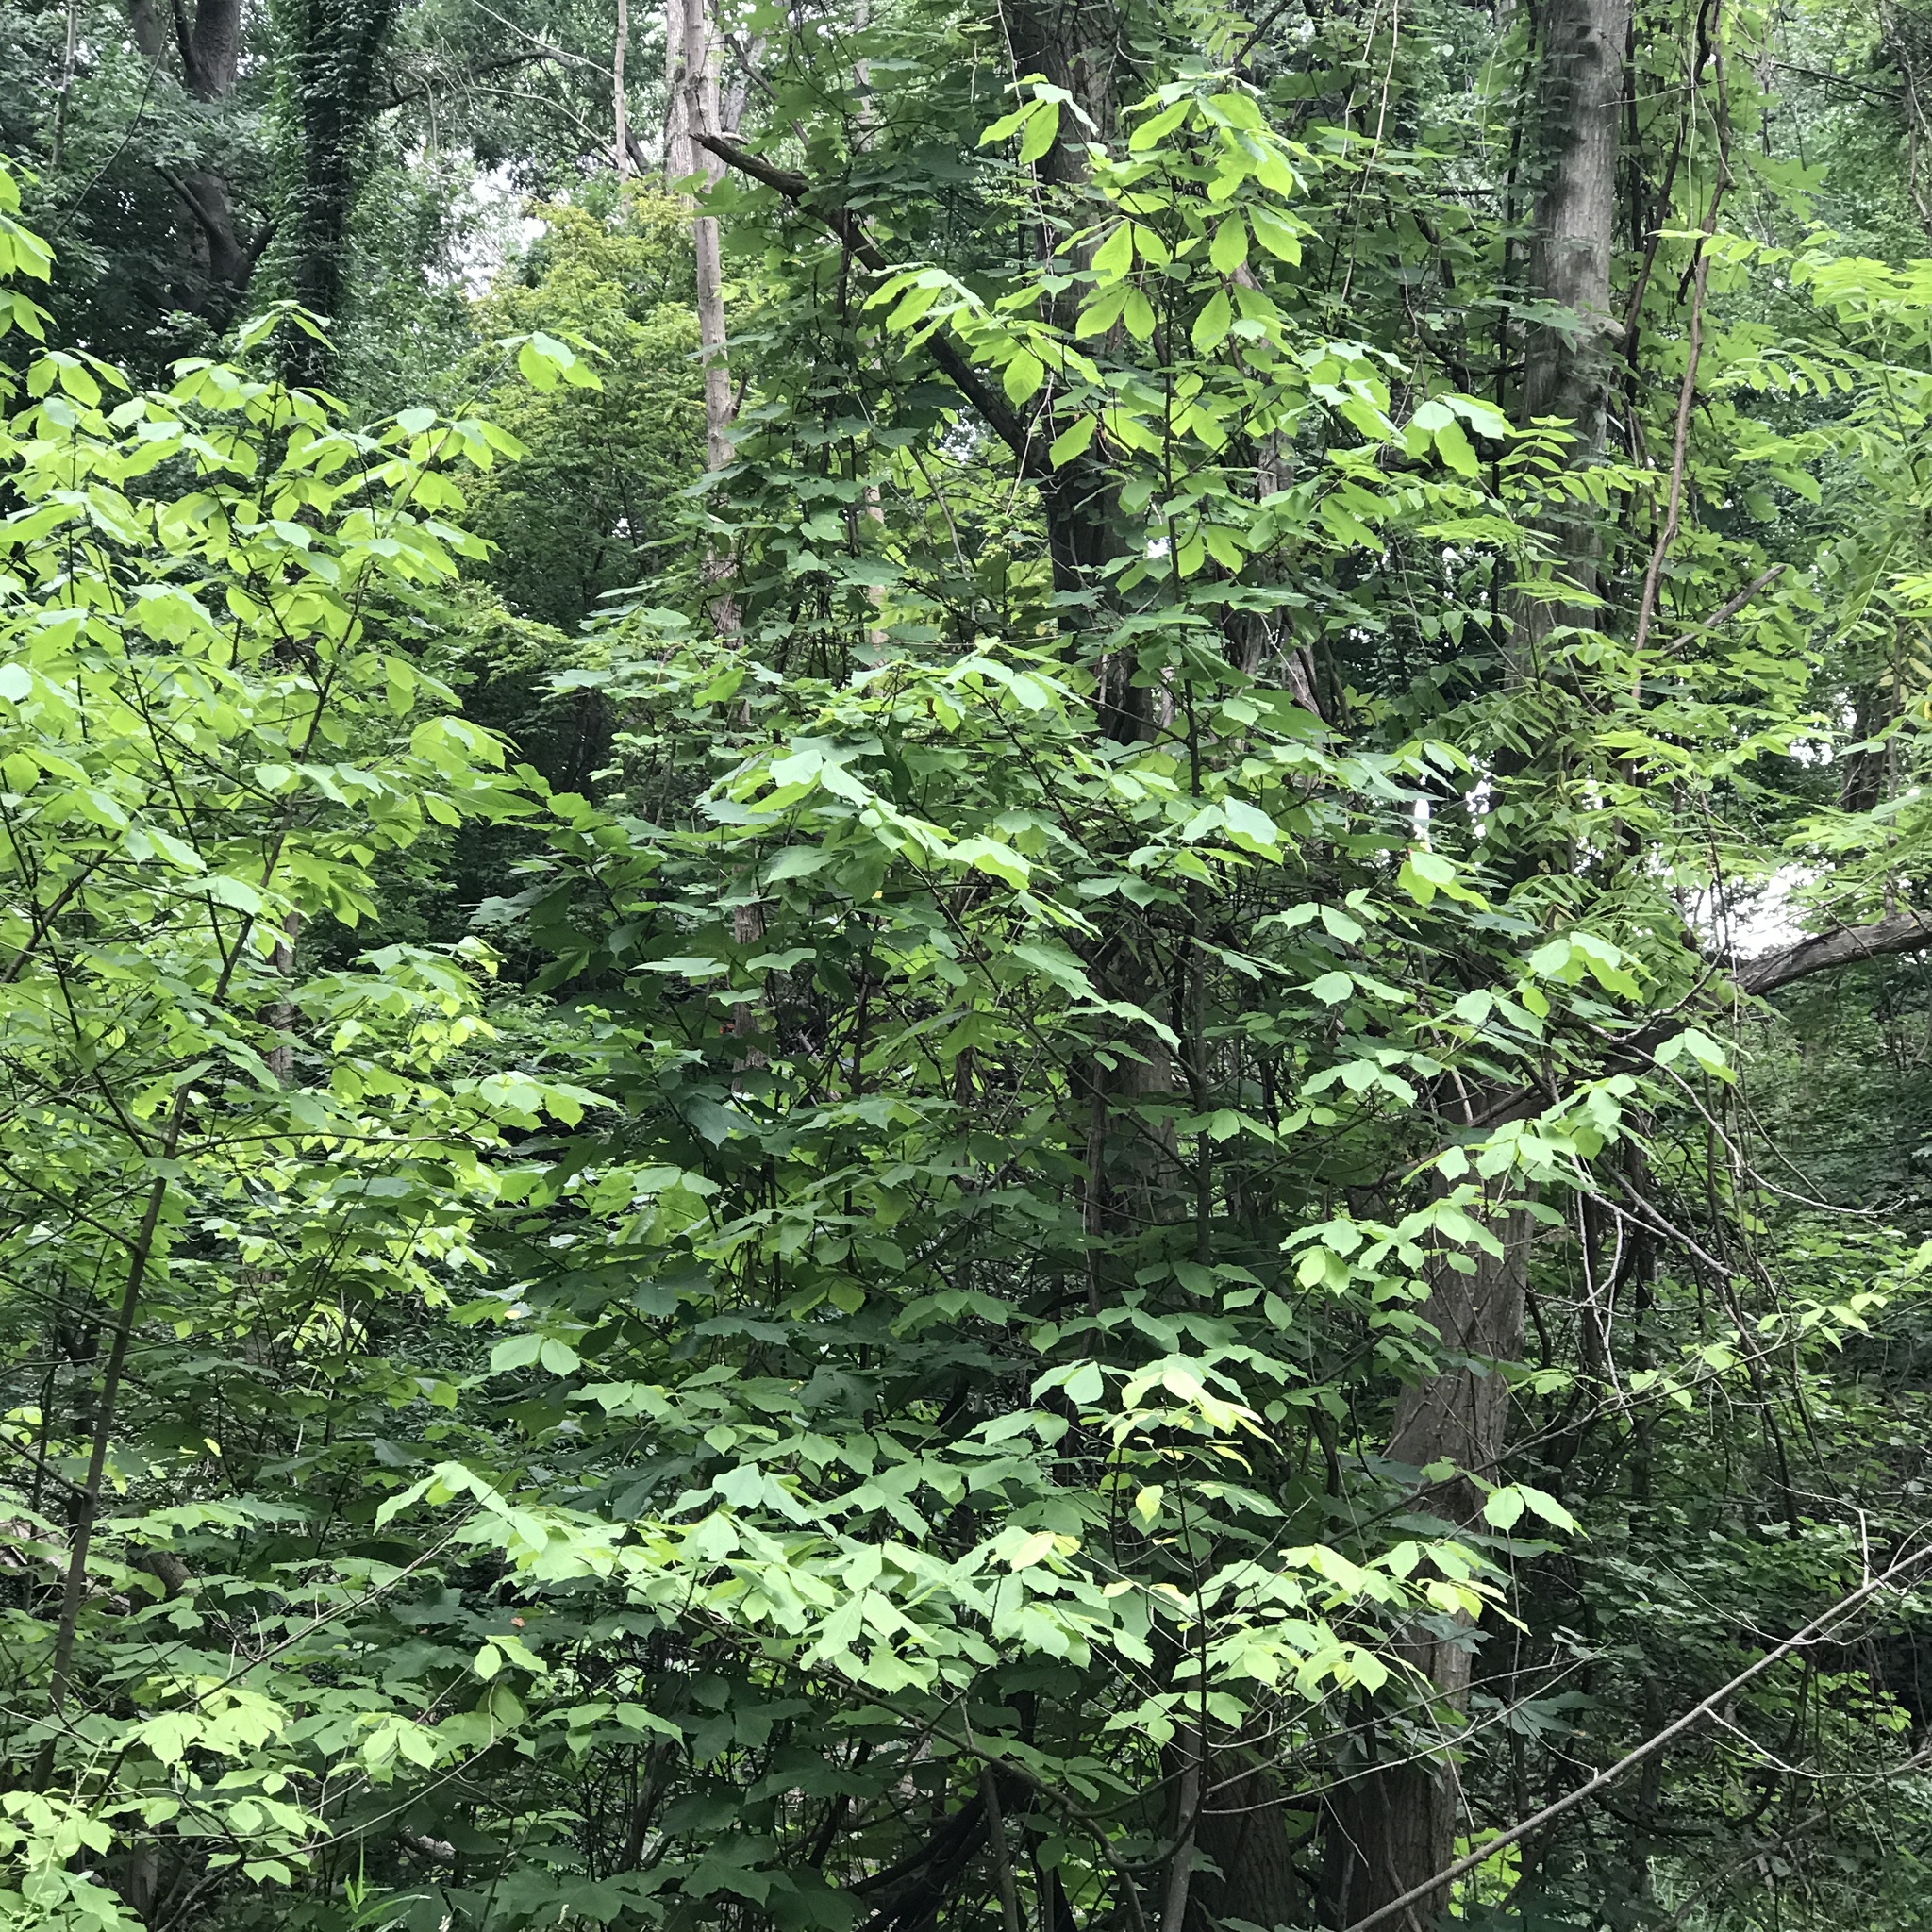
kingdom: Plantae
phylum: Tracheophyta
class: Magnoliopsida
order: Magnoliales
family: Annonaceae
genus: Asimina
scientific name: Asimina triloba
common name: Dog-banana
